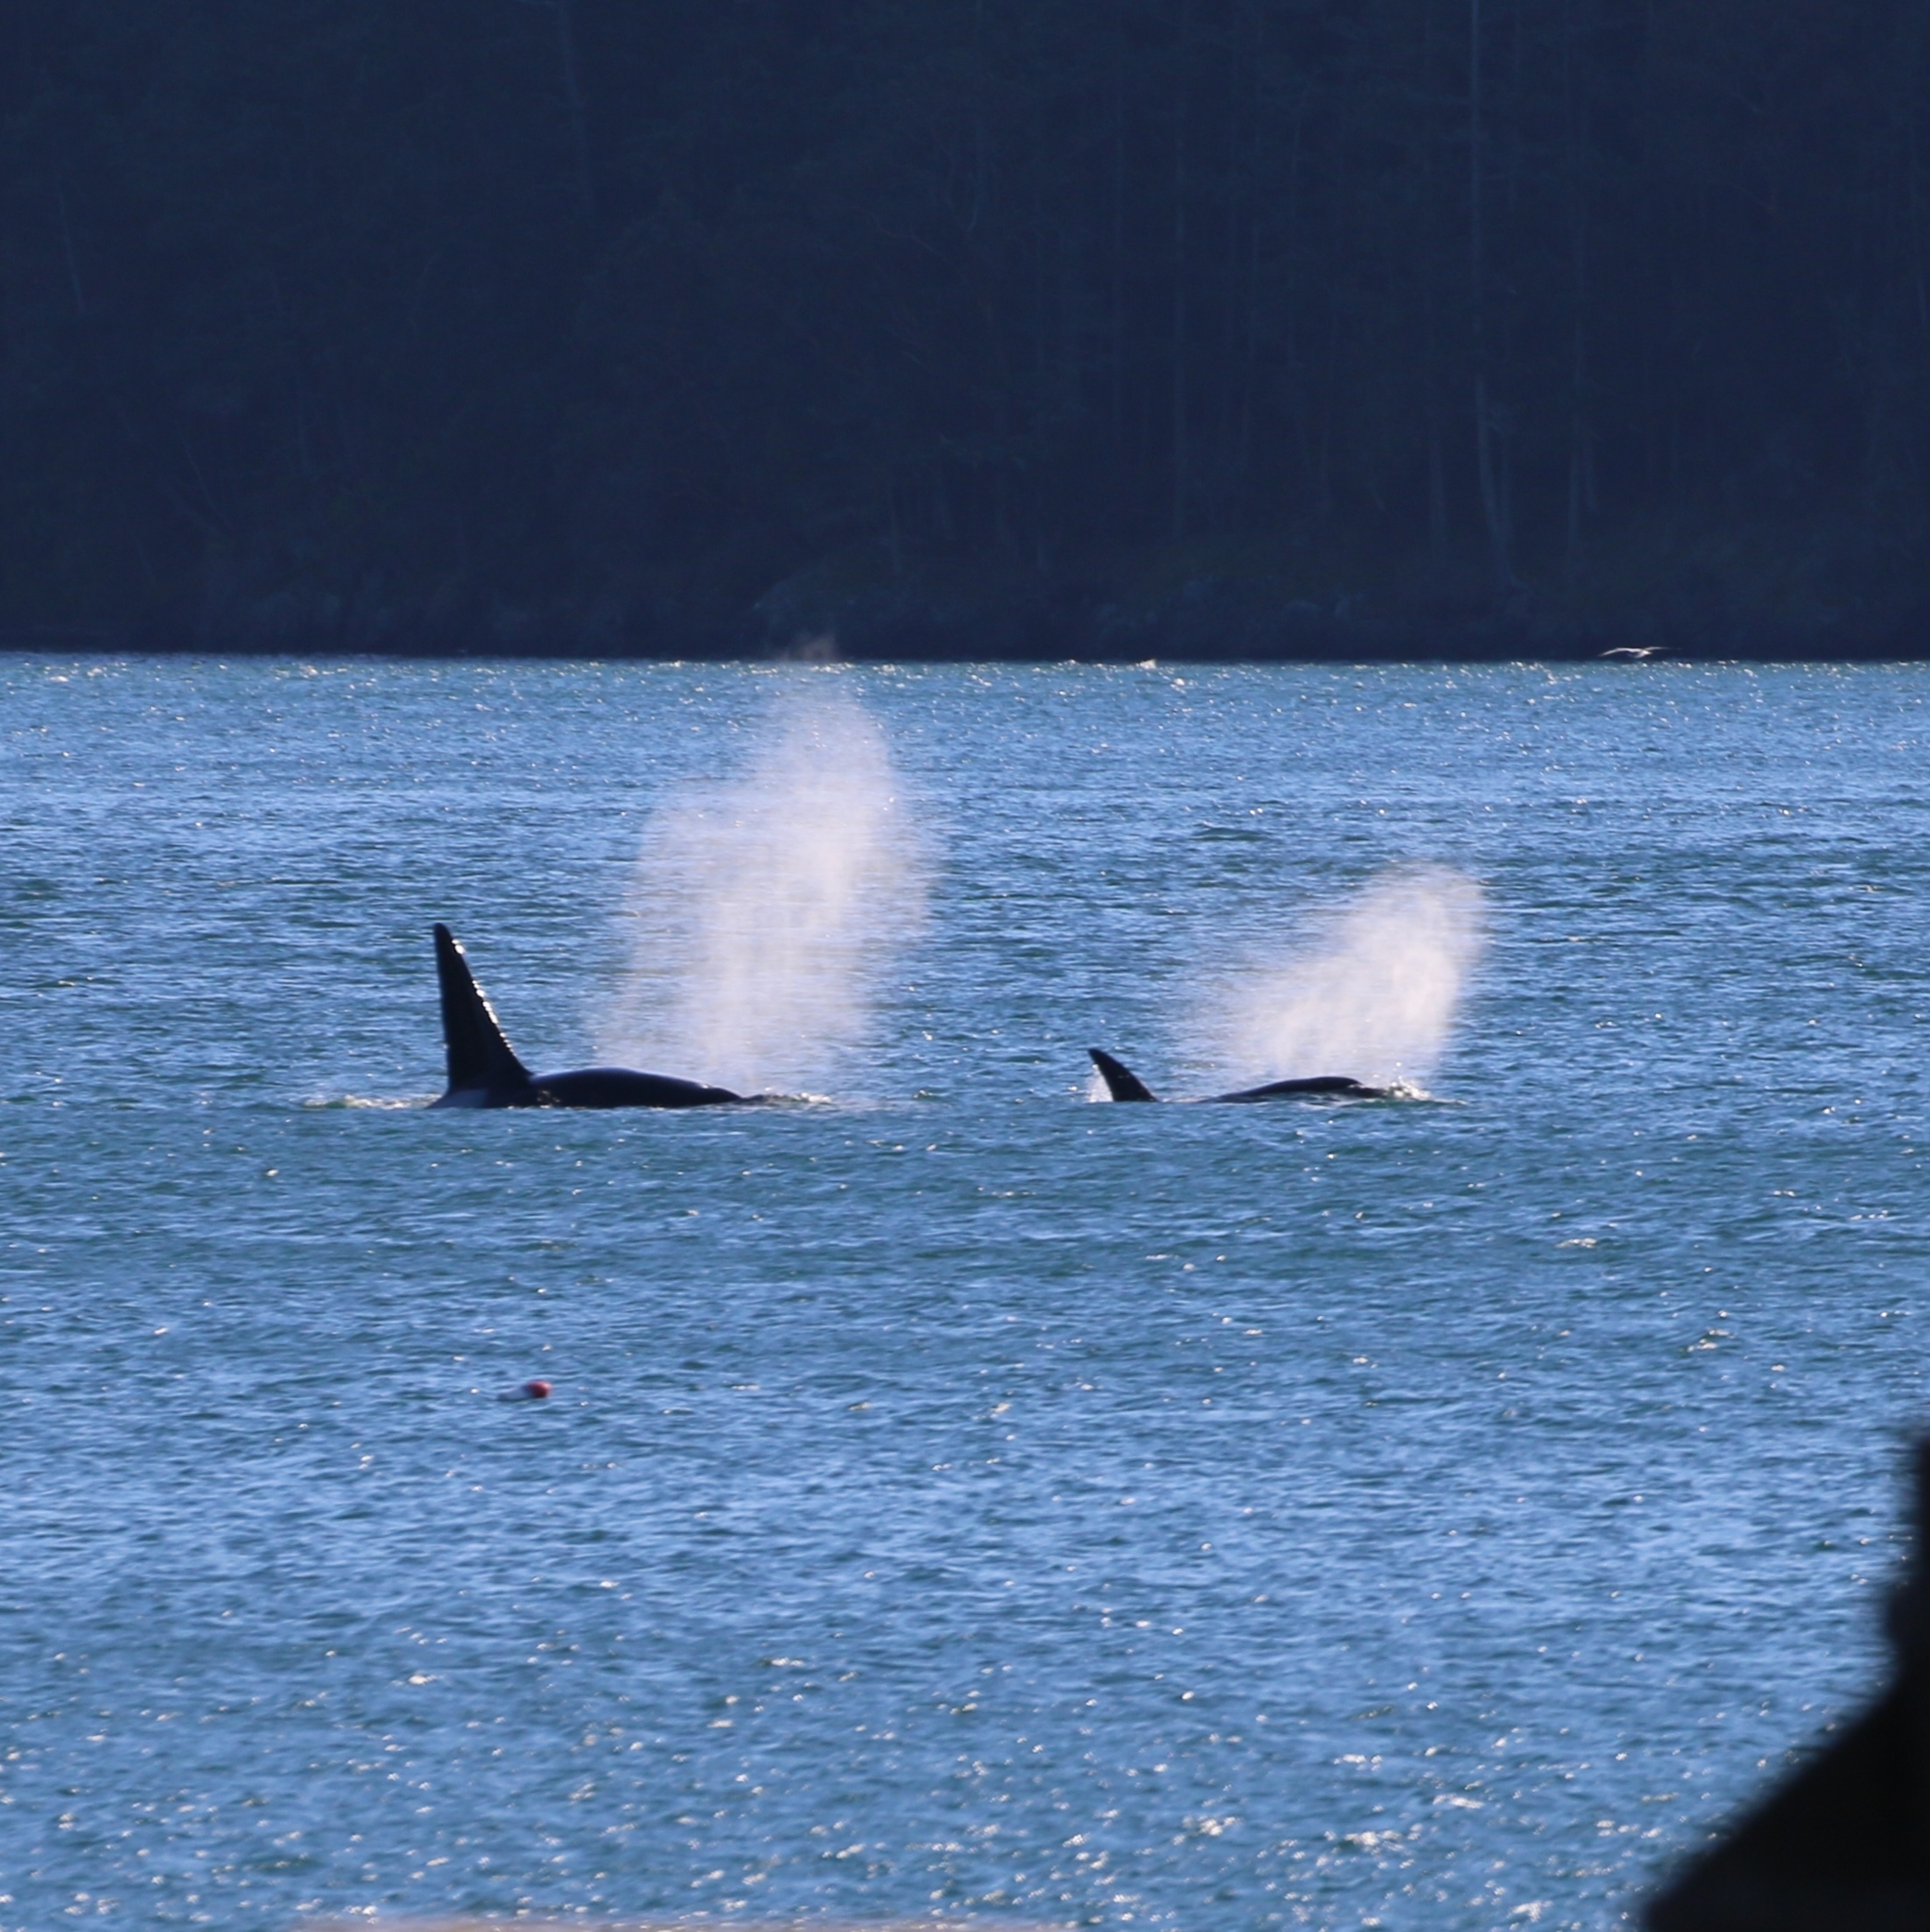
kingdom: Animalia
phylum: Chordata
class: Mammalia
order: Cetacea
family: Delphinidae
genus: Orcinus
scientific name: Orcinus orca
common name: Killer whale
